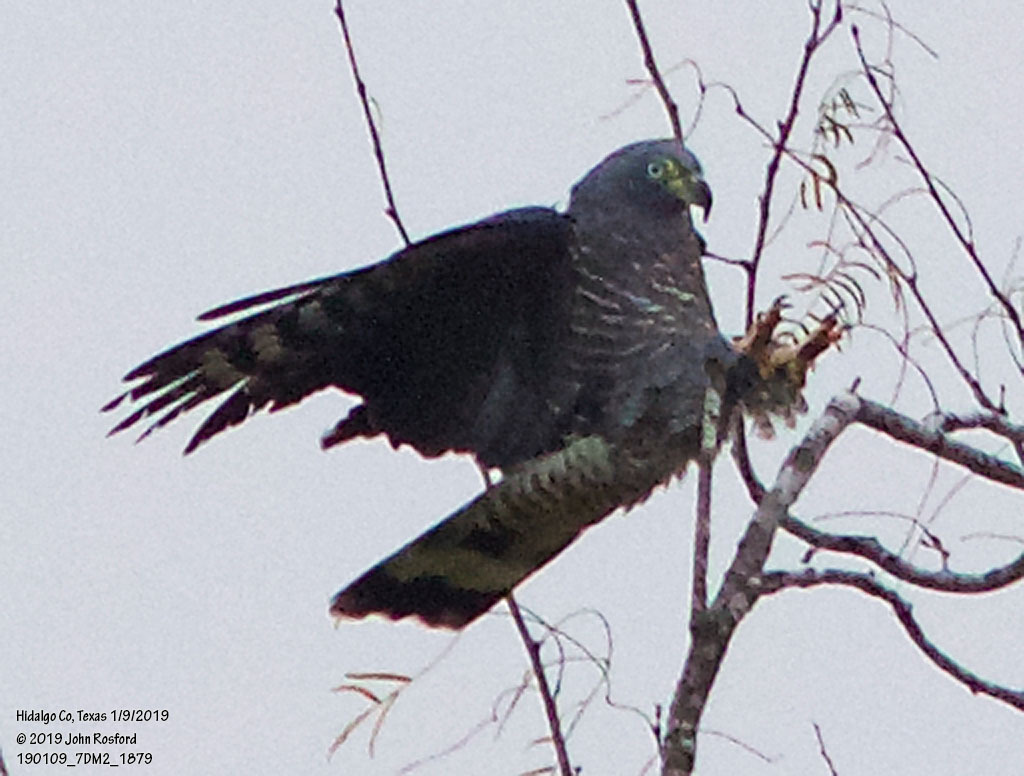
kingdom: Animalia
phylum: Chordata
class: Aves
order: Accipitriformes
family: Accipitridae
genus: Chondrohierax
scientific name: Chondrohierax uncinatus
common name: Hook-billed kite
